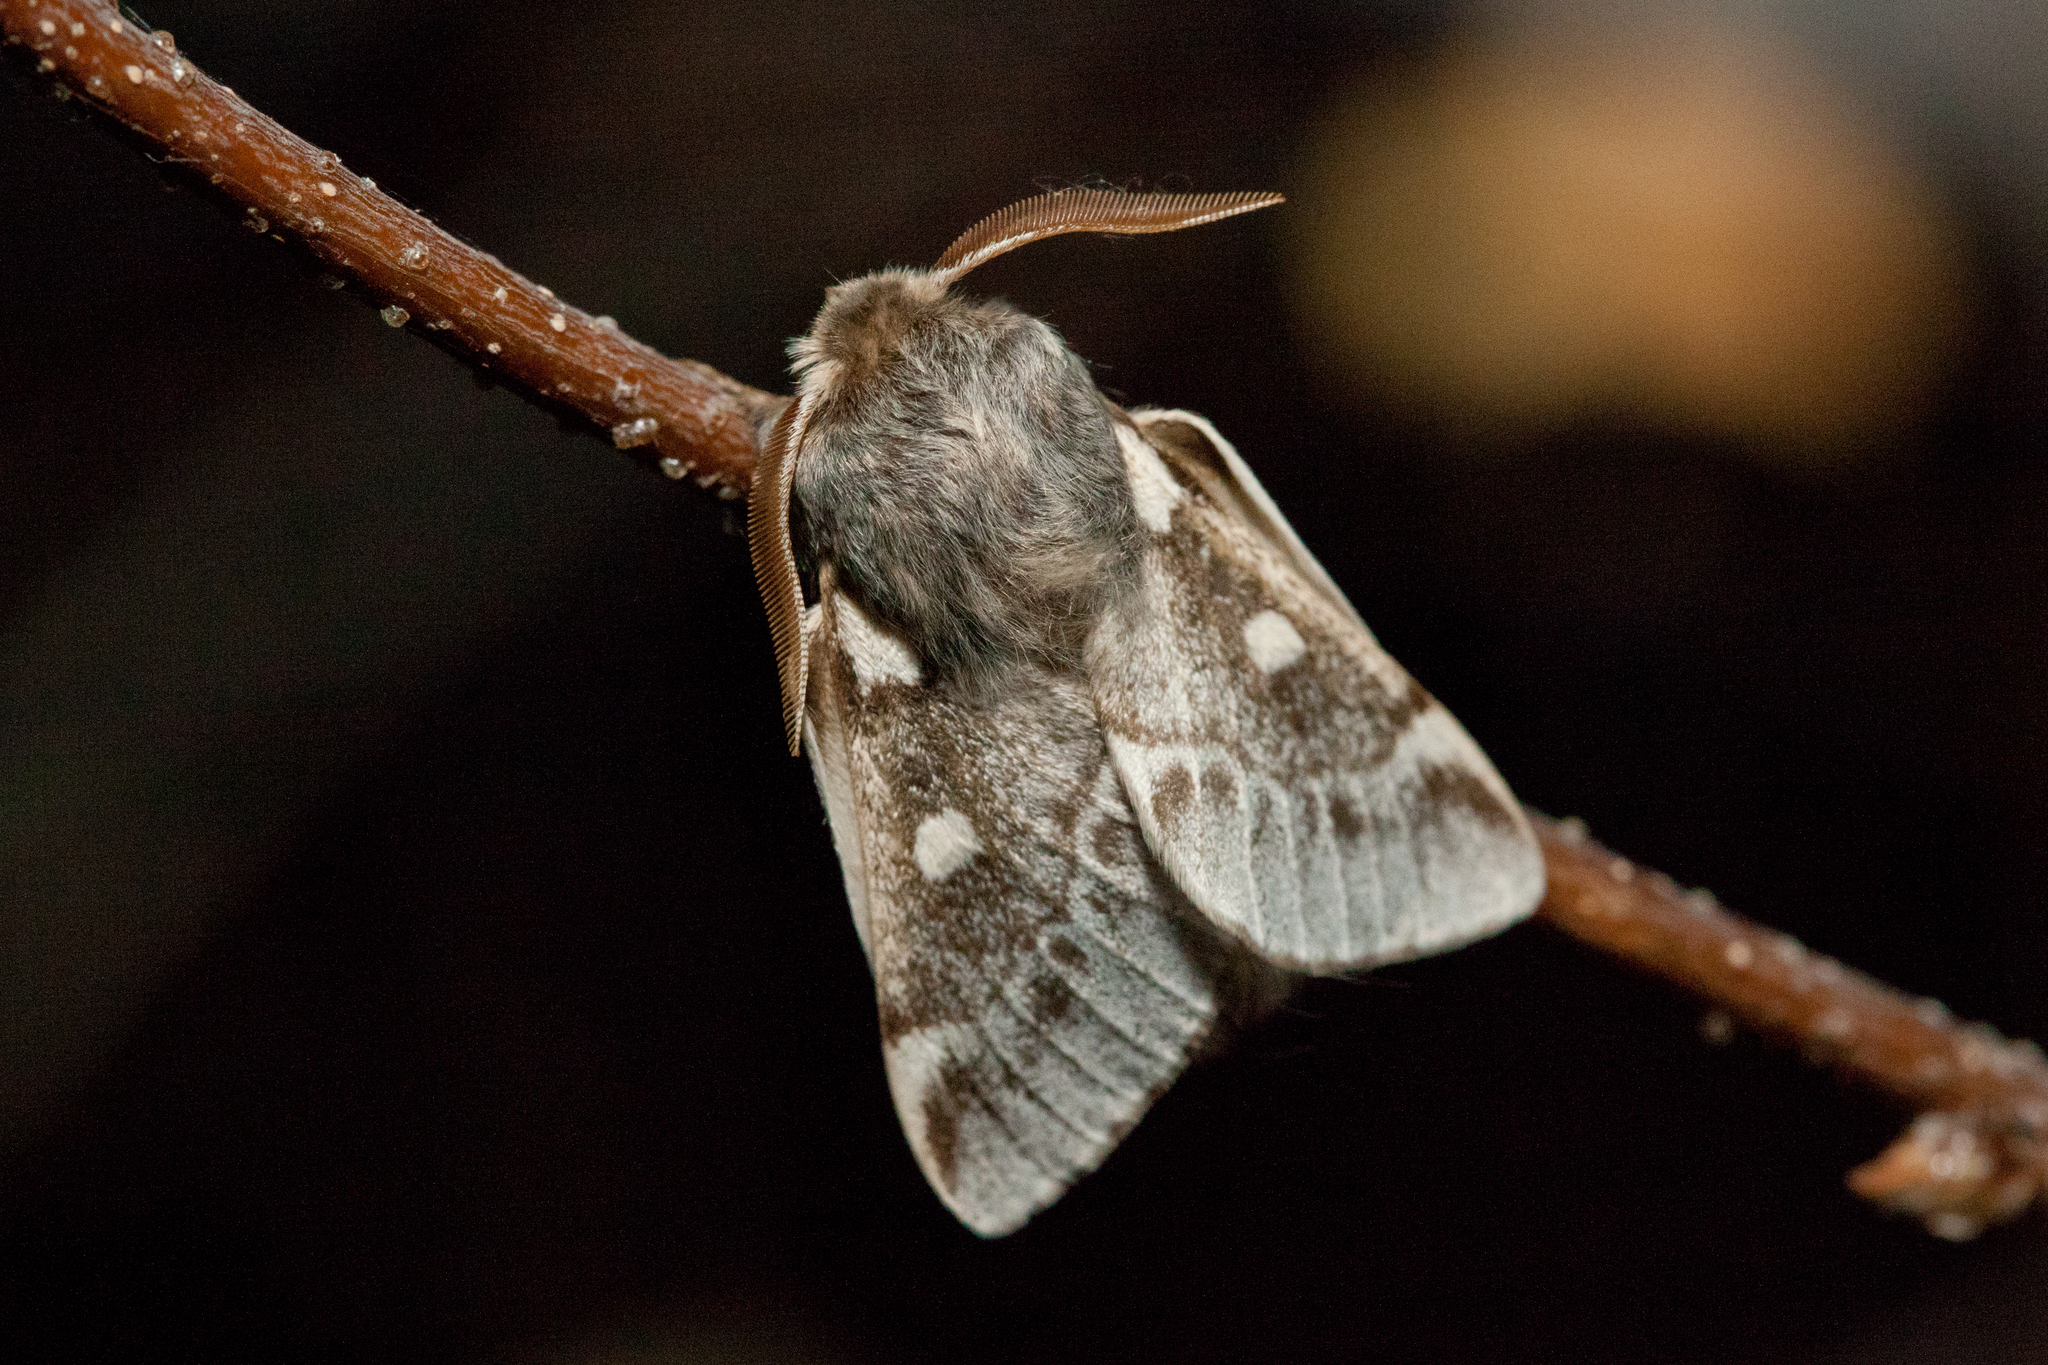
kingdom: Animalia
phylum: Arthropoda
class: Insecta
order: Lepidoptera
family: Lasiocampidae
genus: Eriogaster
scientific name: Eriogaster lanestris
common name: Small eggar
